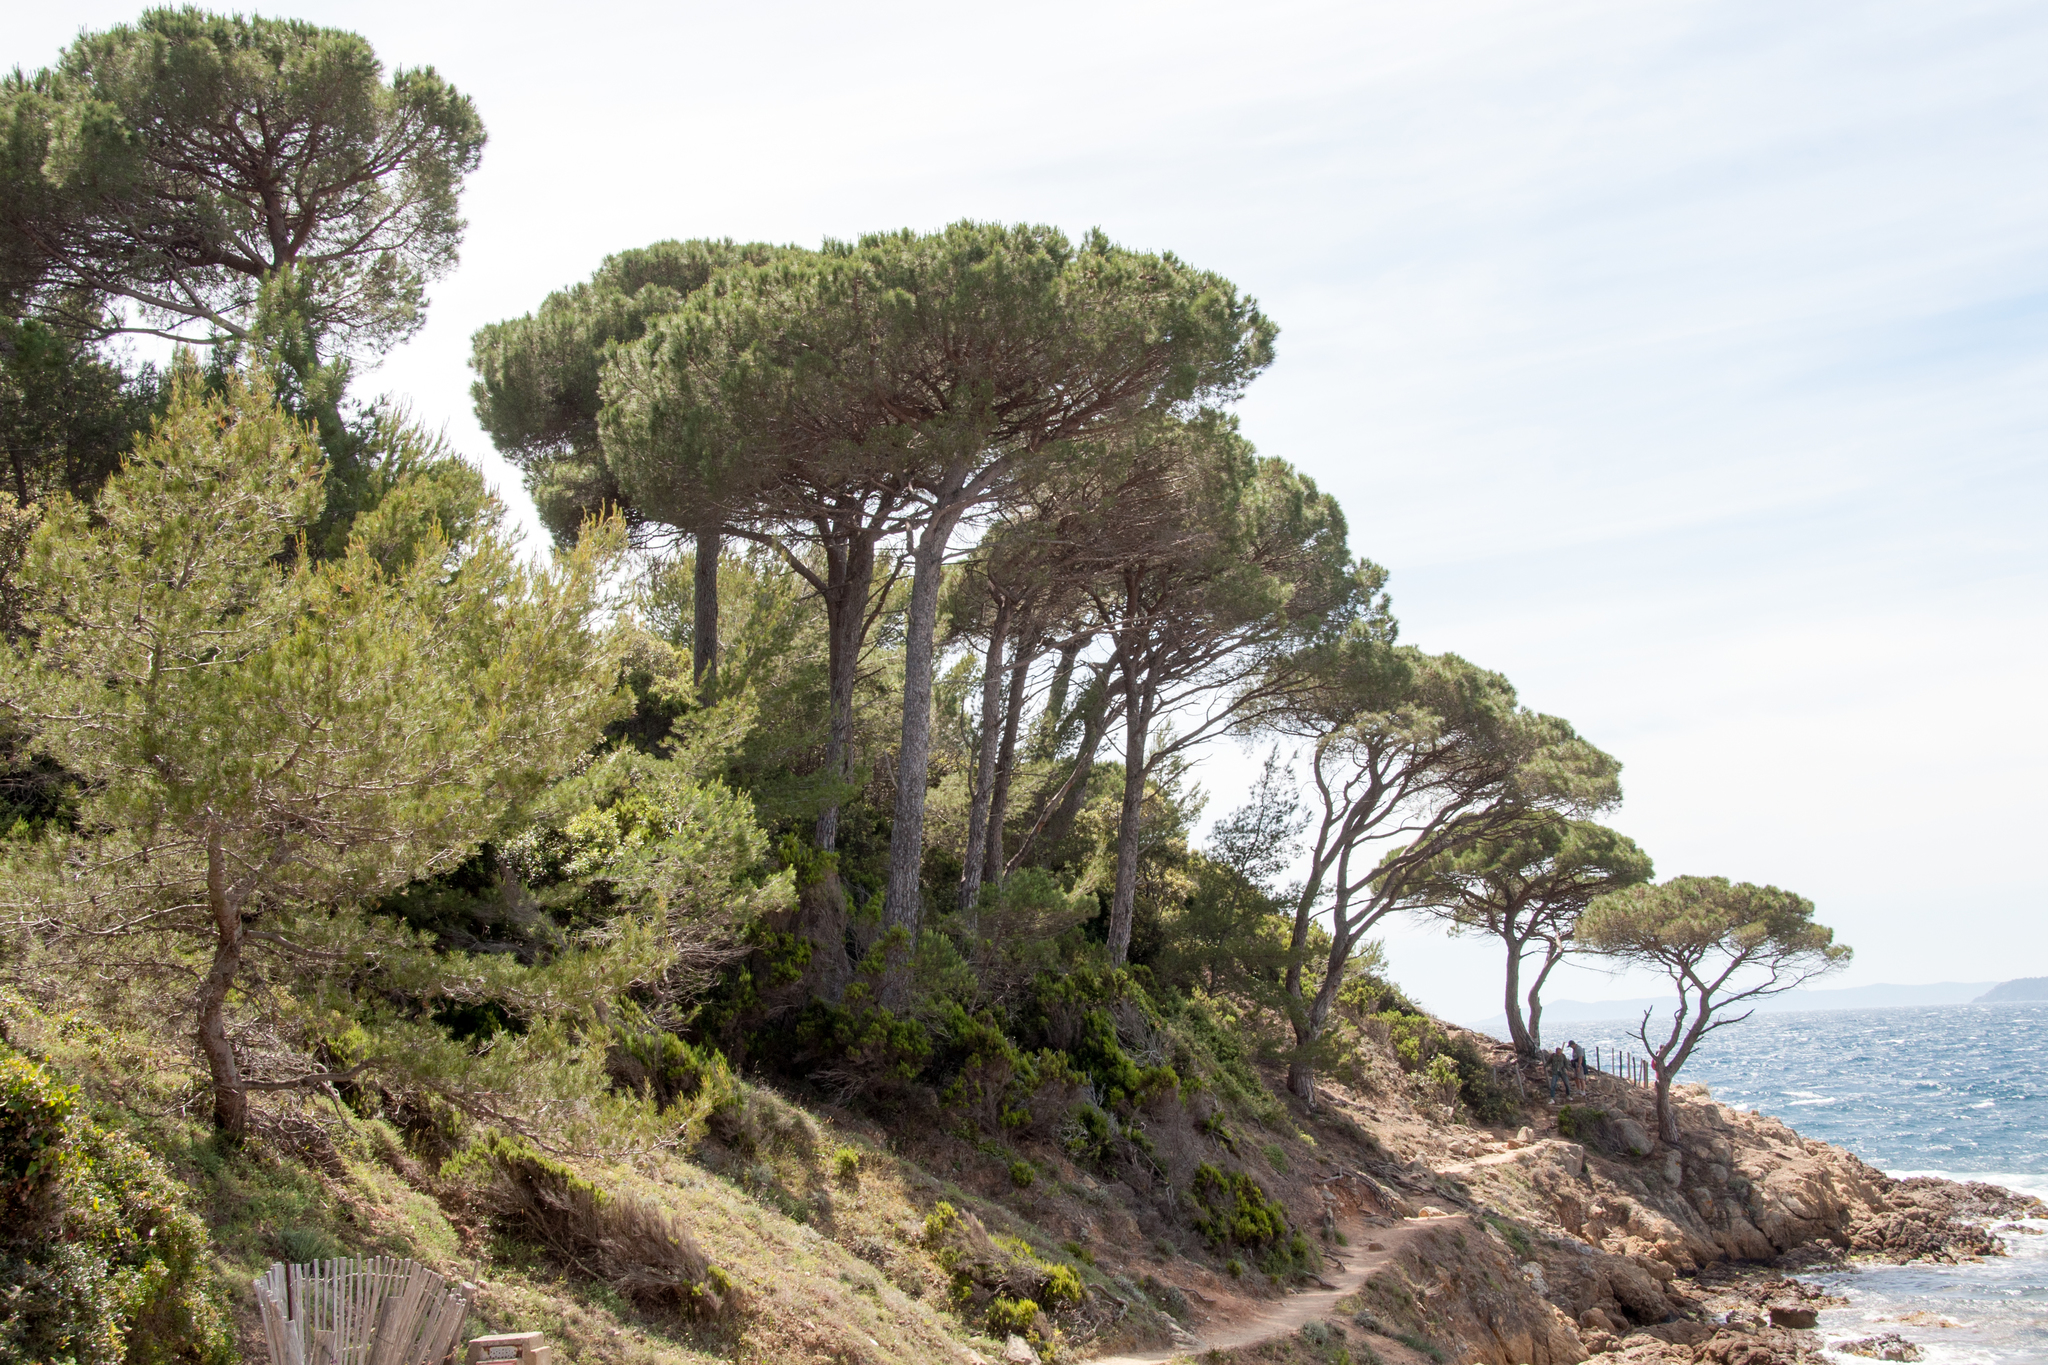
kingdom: Plantae
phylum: Tracheophyta
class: Pinopsida
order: Pinales
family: Pinaceae
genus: Pinus
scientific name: Pinus pinea
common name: Italian stone pine
